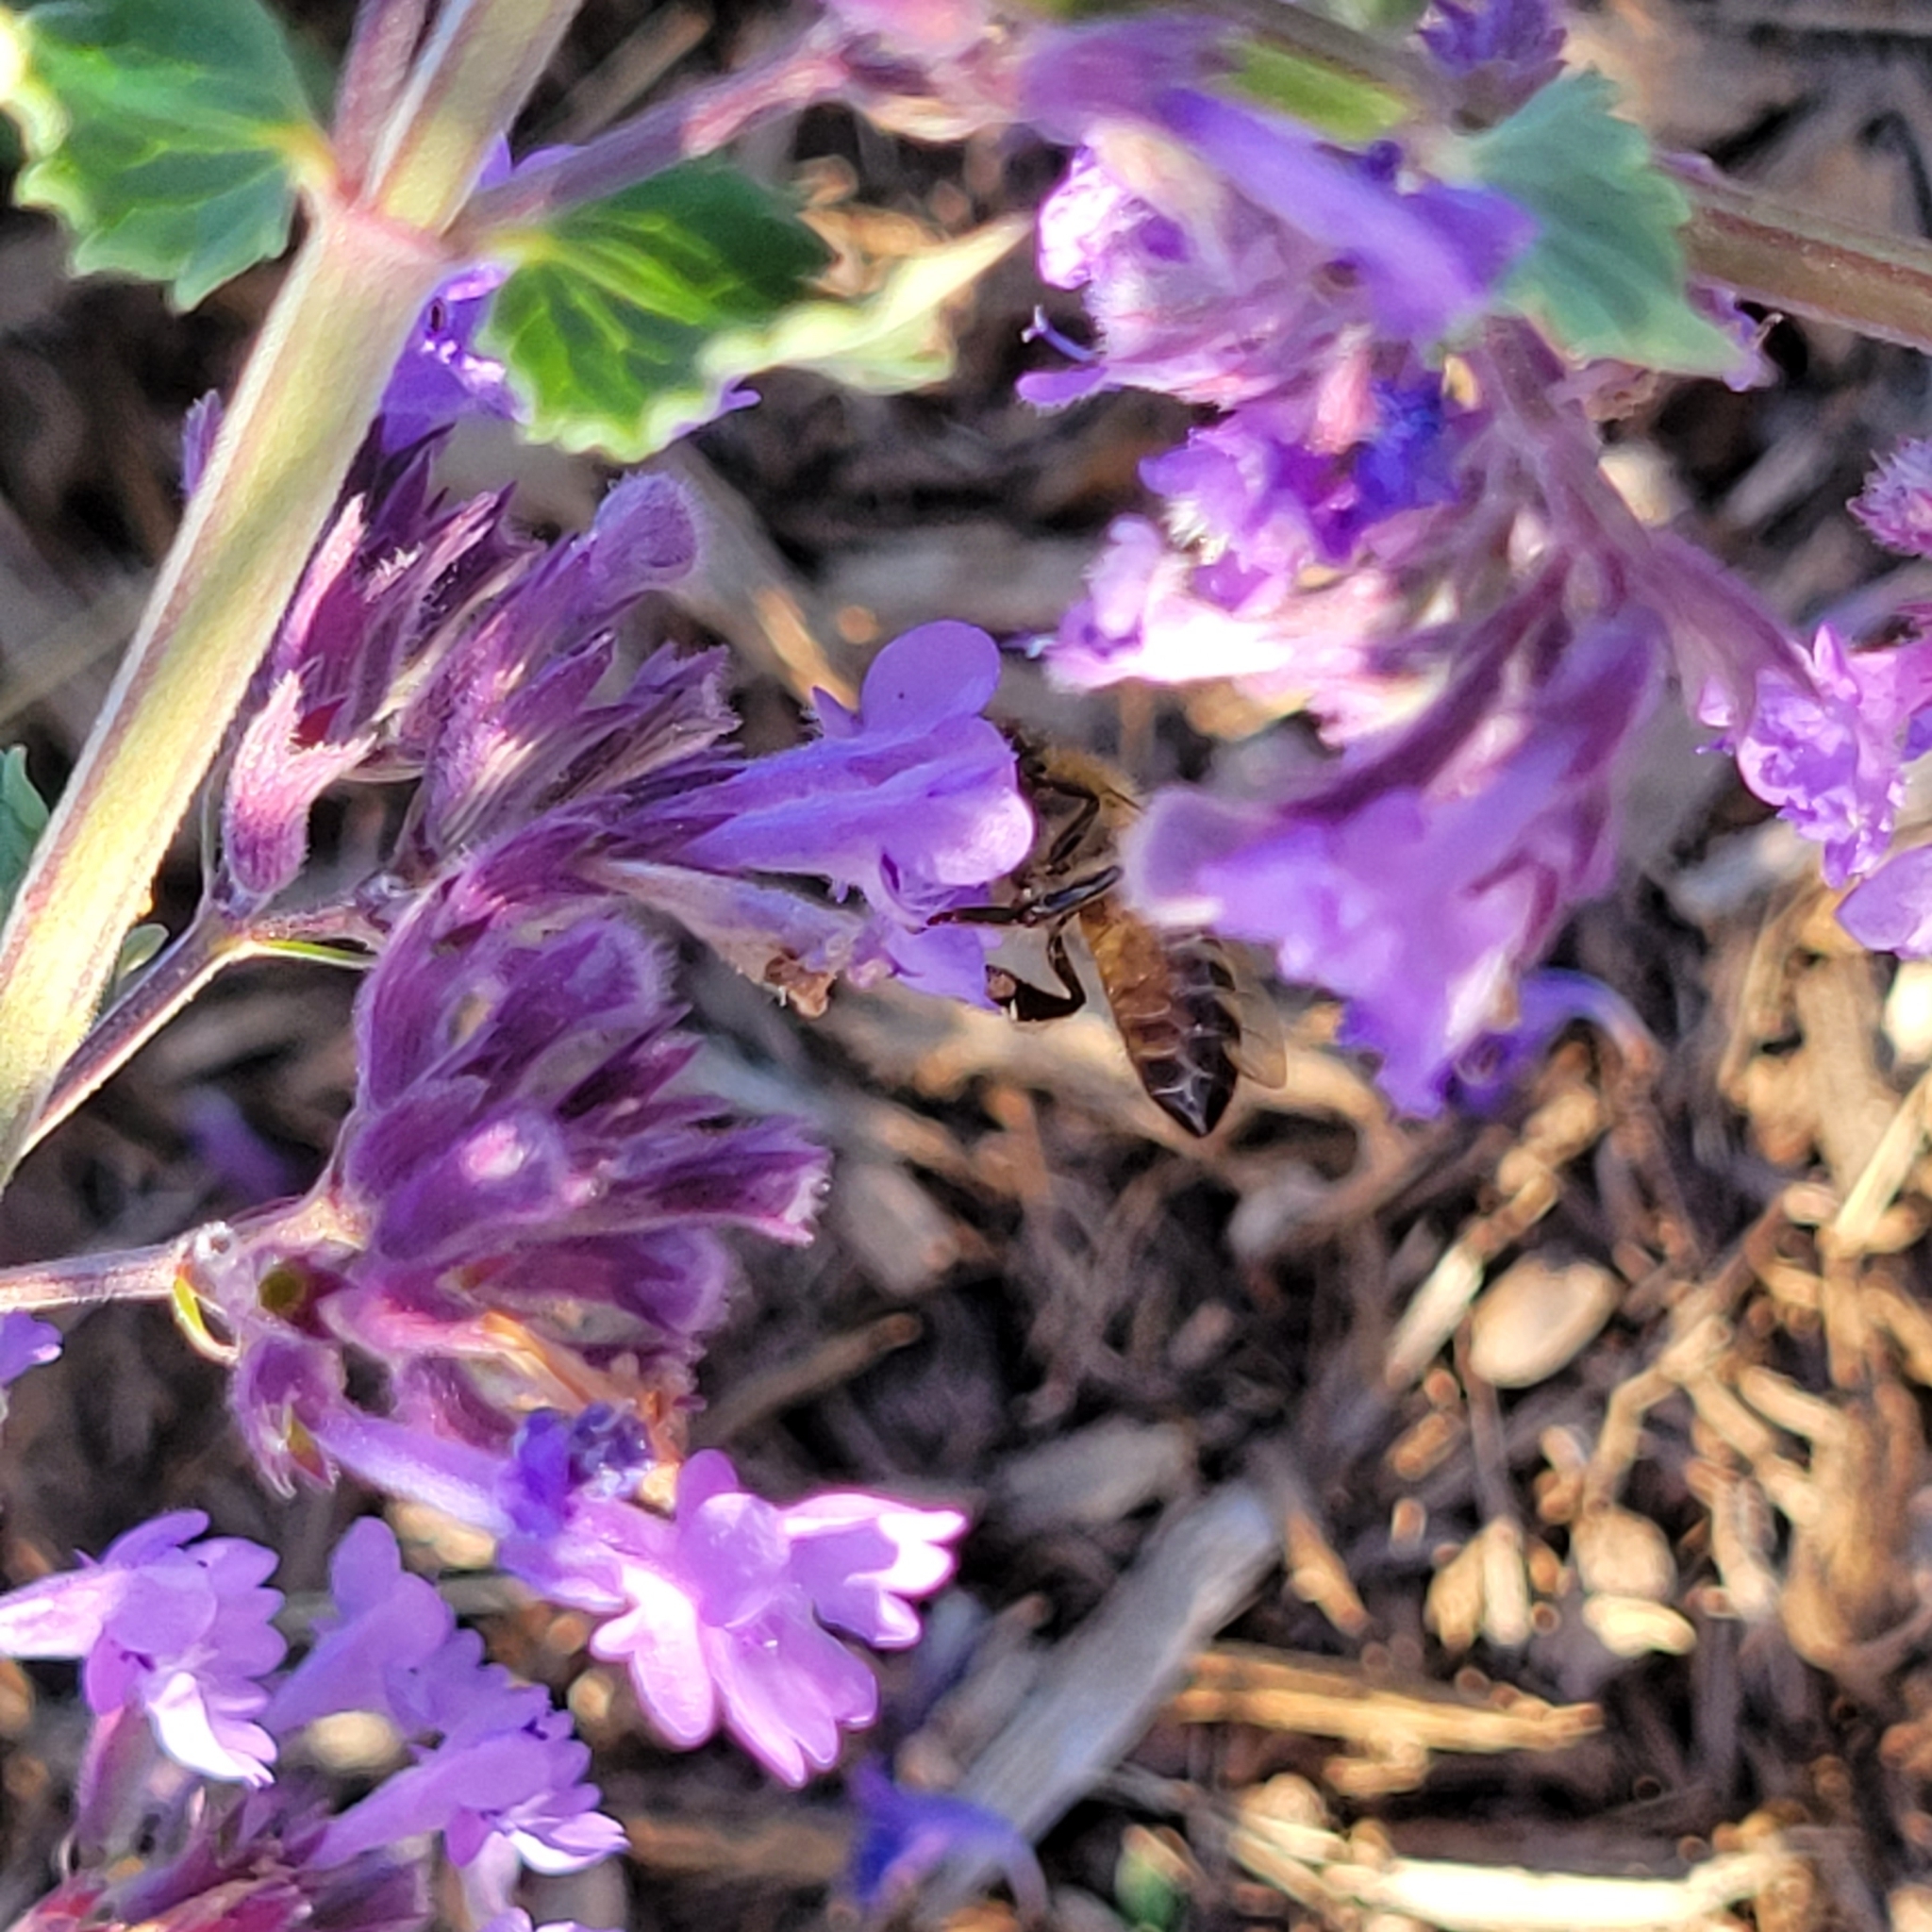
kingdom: Animalia
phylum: Arthropoda
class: Insecta
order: Hymenoptera
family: Apidae
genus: Apis
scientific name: Apis mellifera
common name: Honey bee
